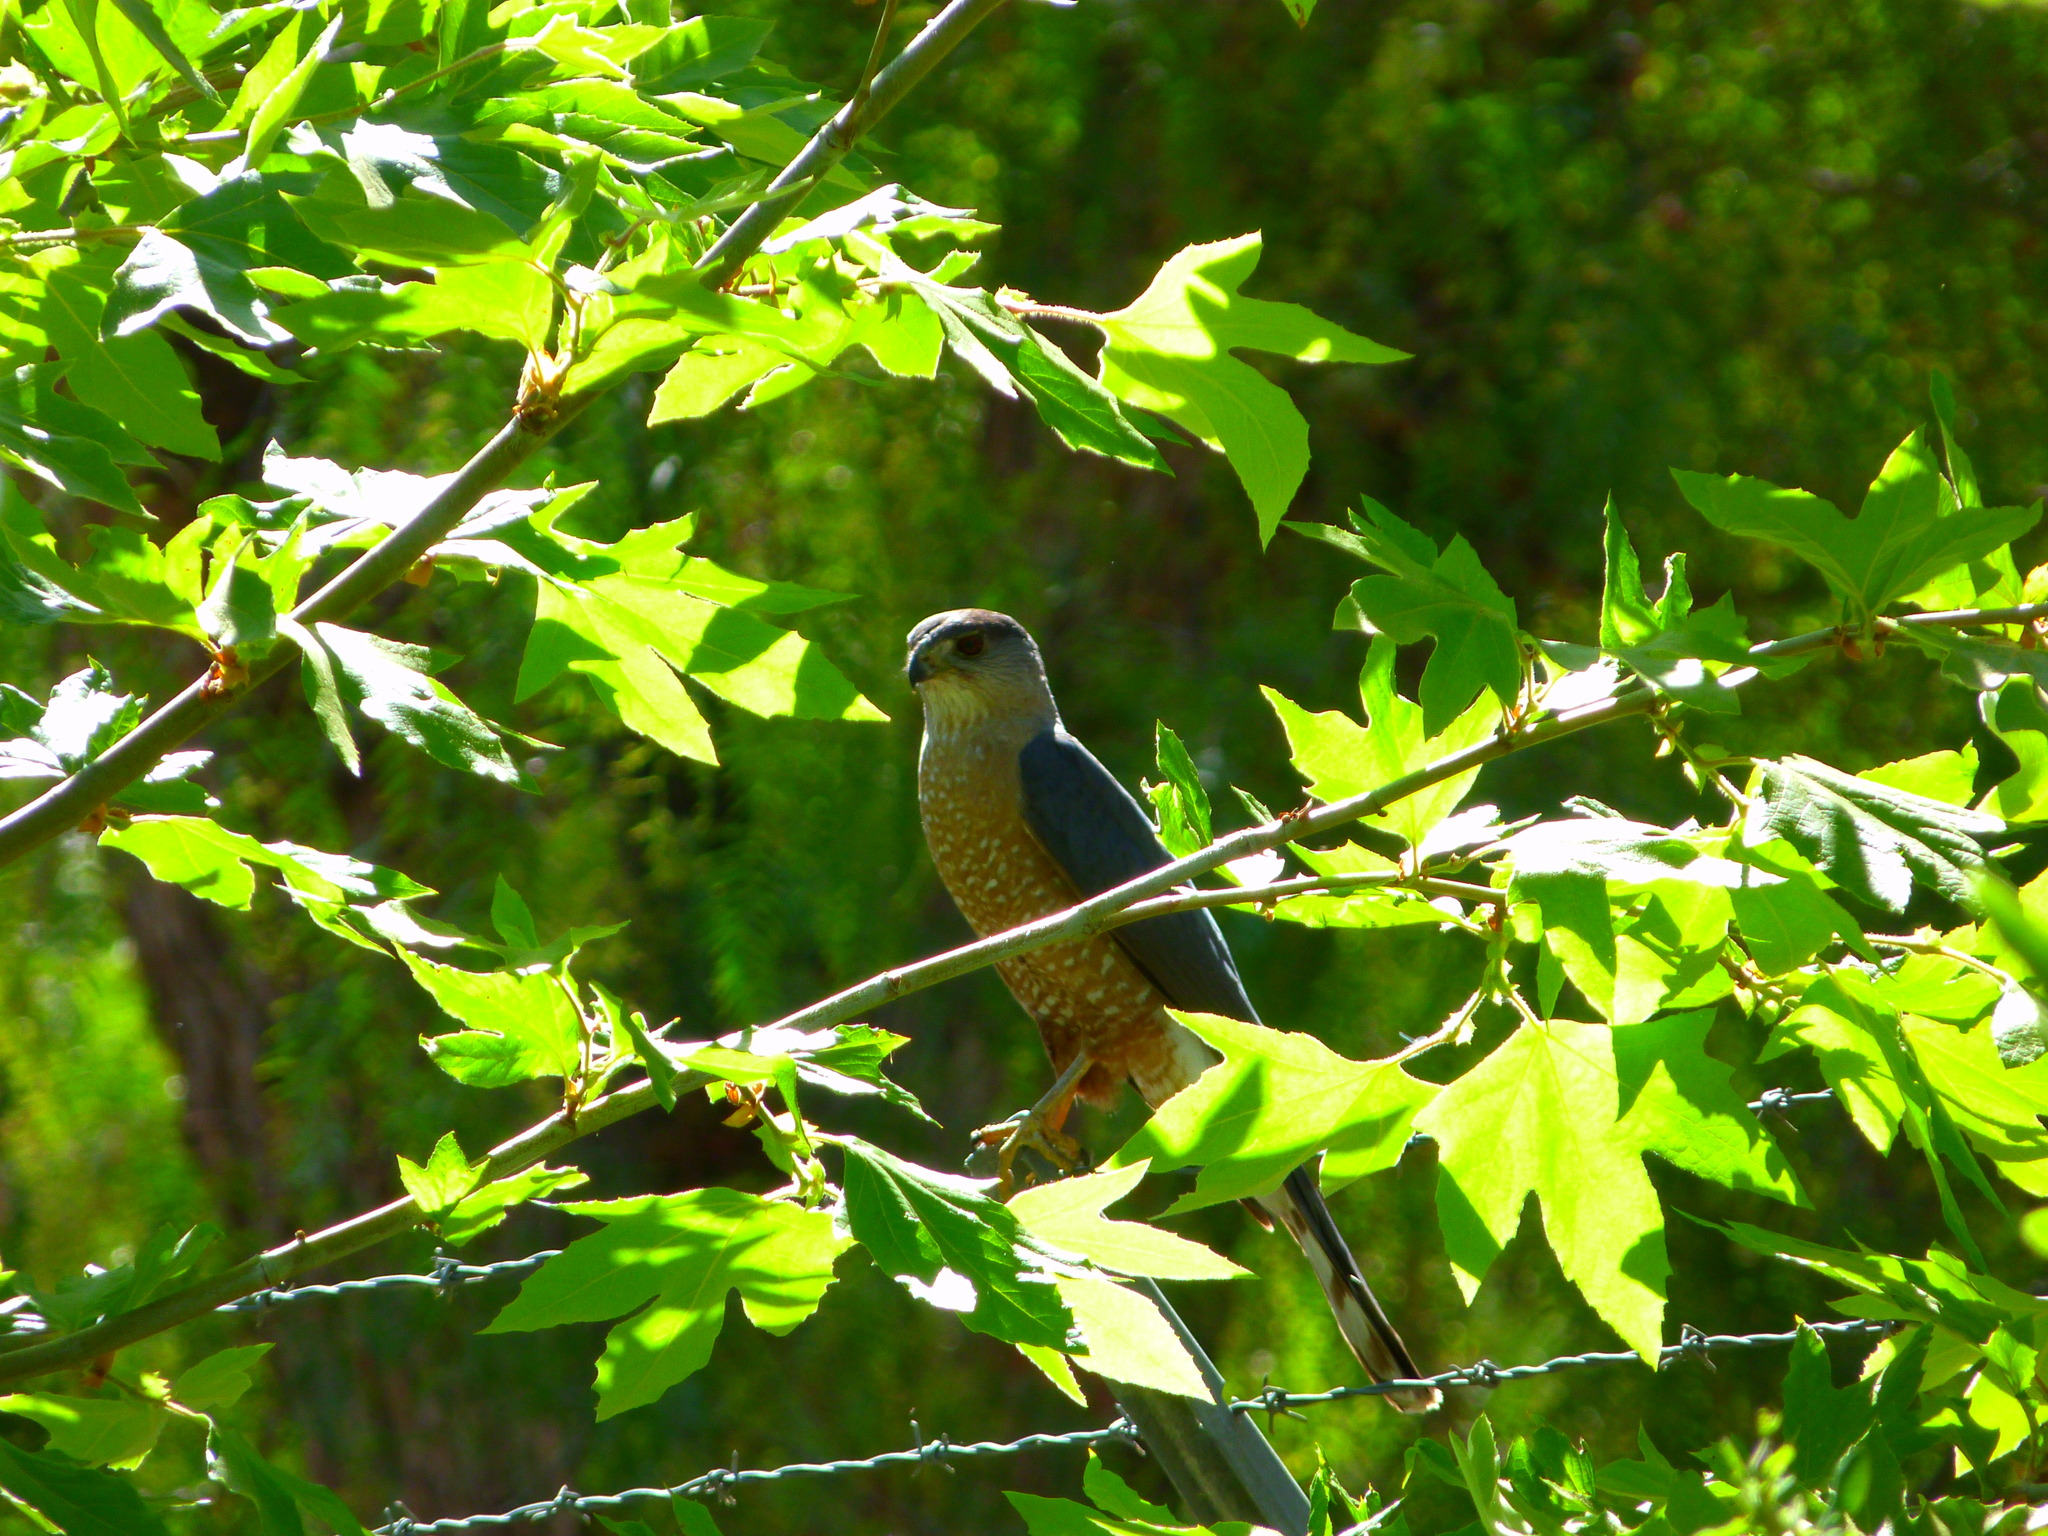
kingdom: Animalia
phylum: Chordata
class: Aves
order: Accipitriformes
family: Accipitridae
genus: Accipiter
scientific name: Accipiter cooperii
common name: Cooper's hawk
